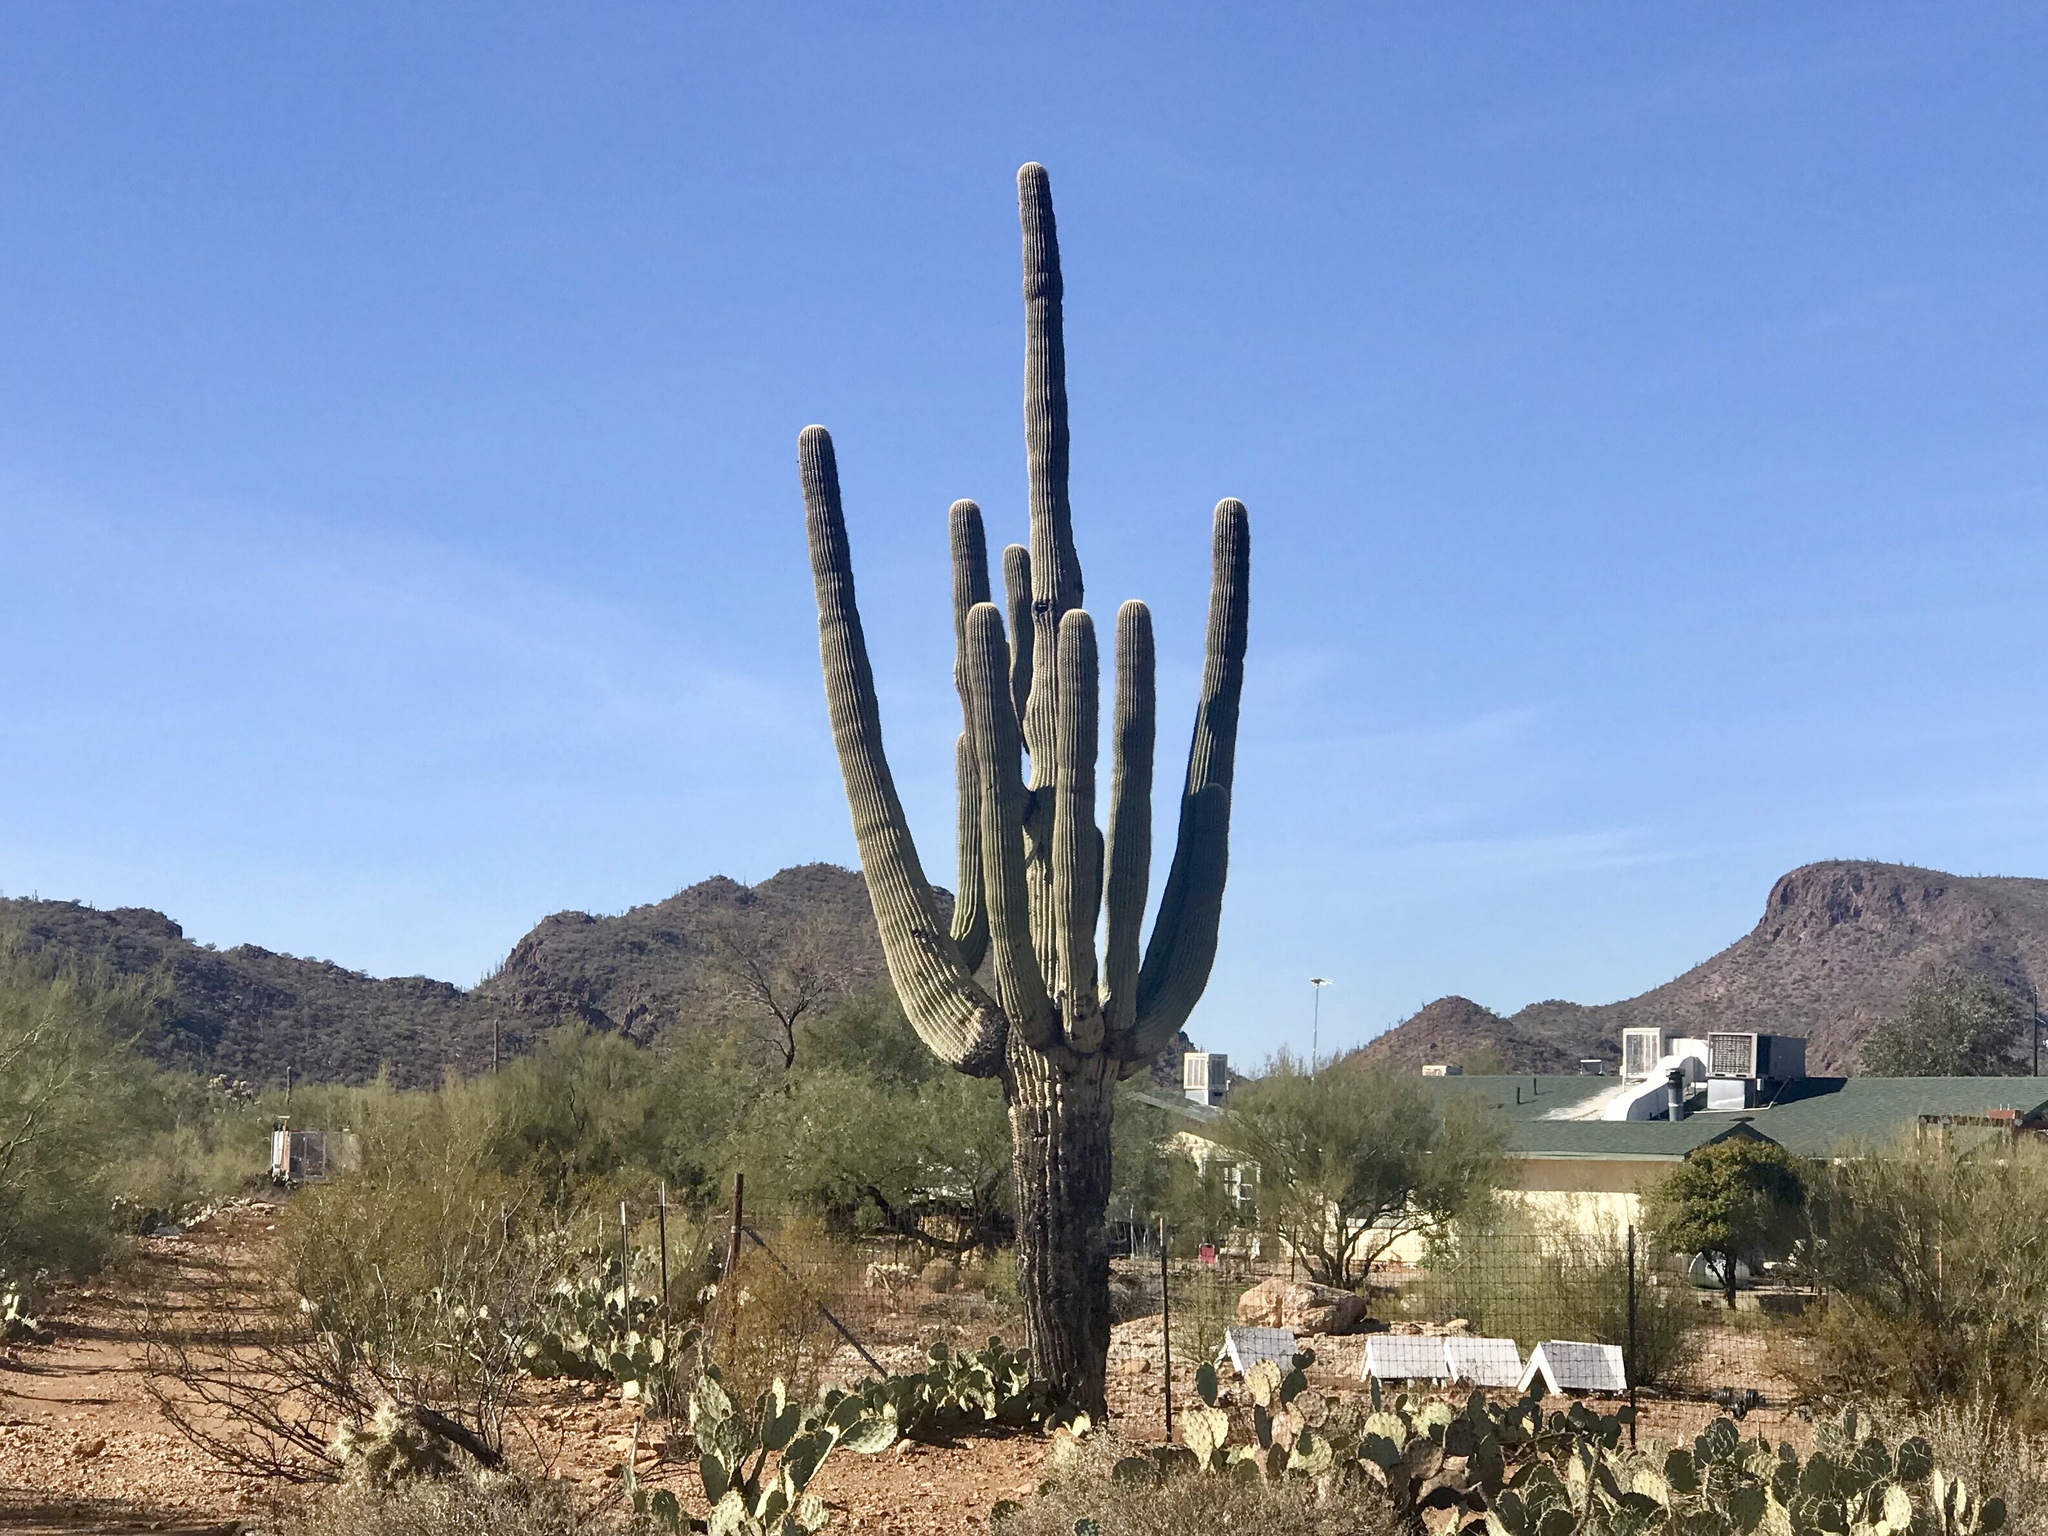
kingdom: Plantae
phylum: Tracheophyta
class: Magnoliopsida
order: Caryophyllales
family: Cactaceae
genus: Carnegiea
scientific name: Carnegiea gigantea
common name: Saguaro
